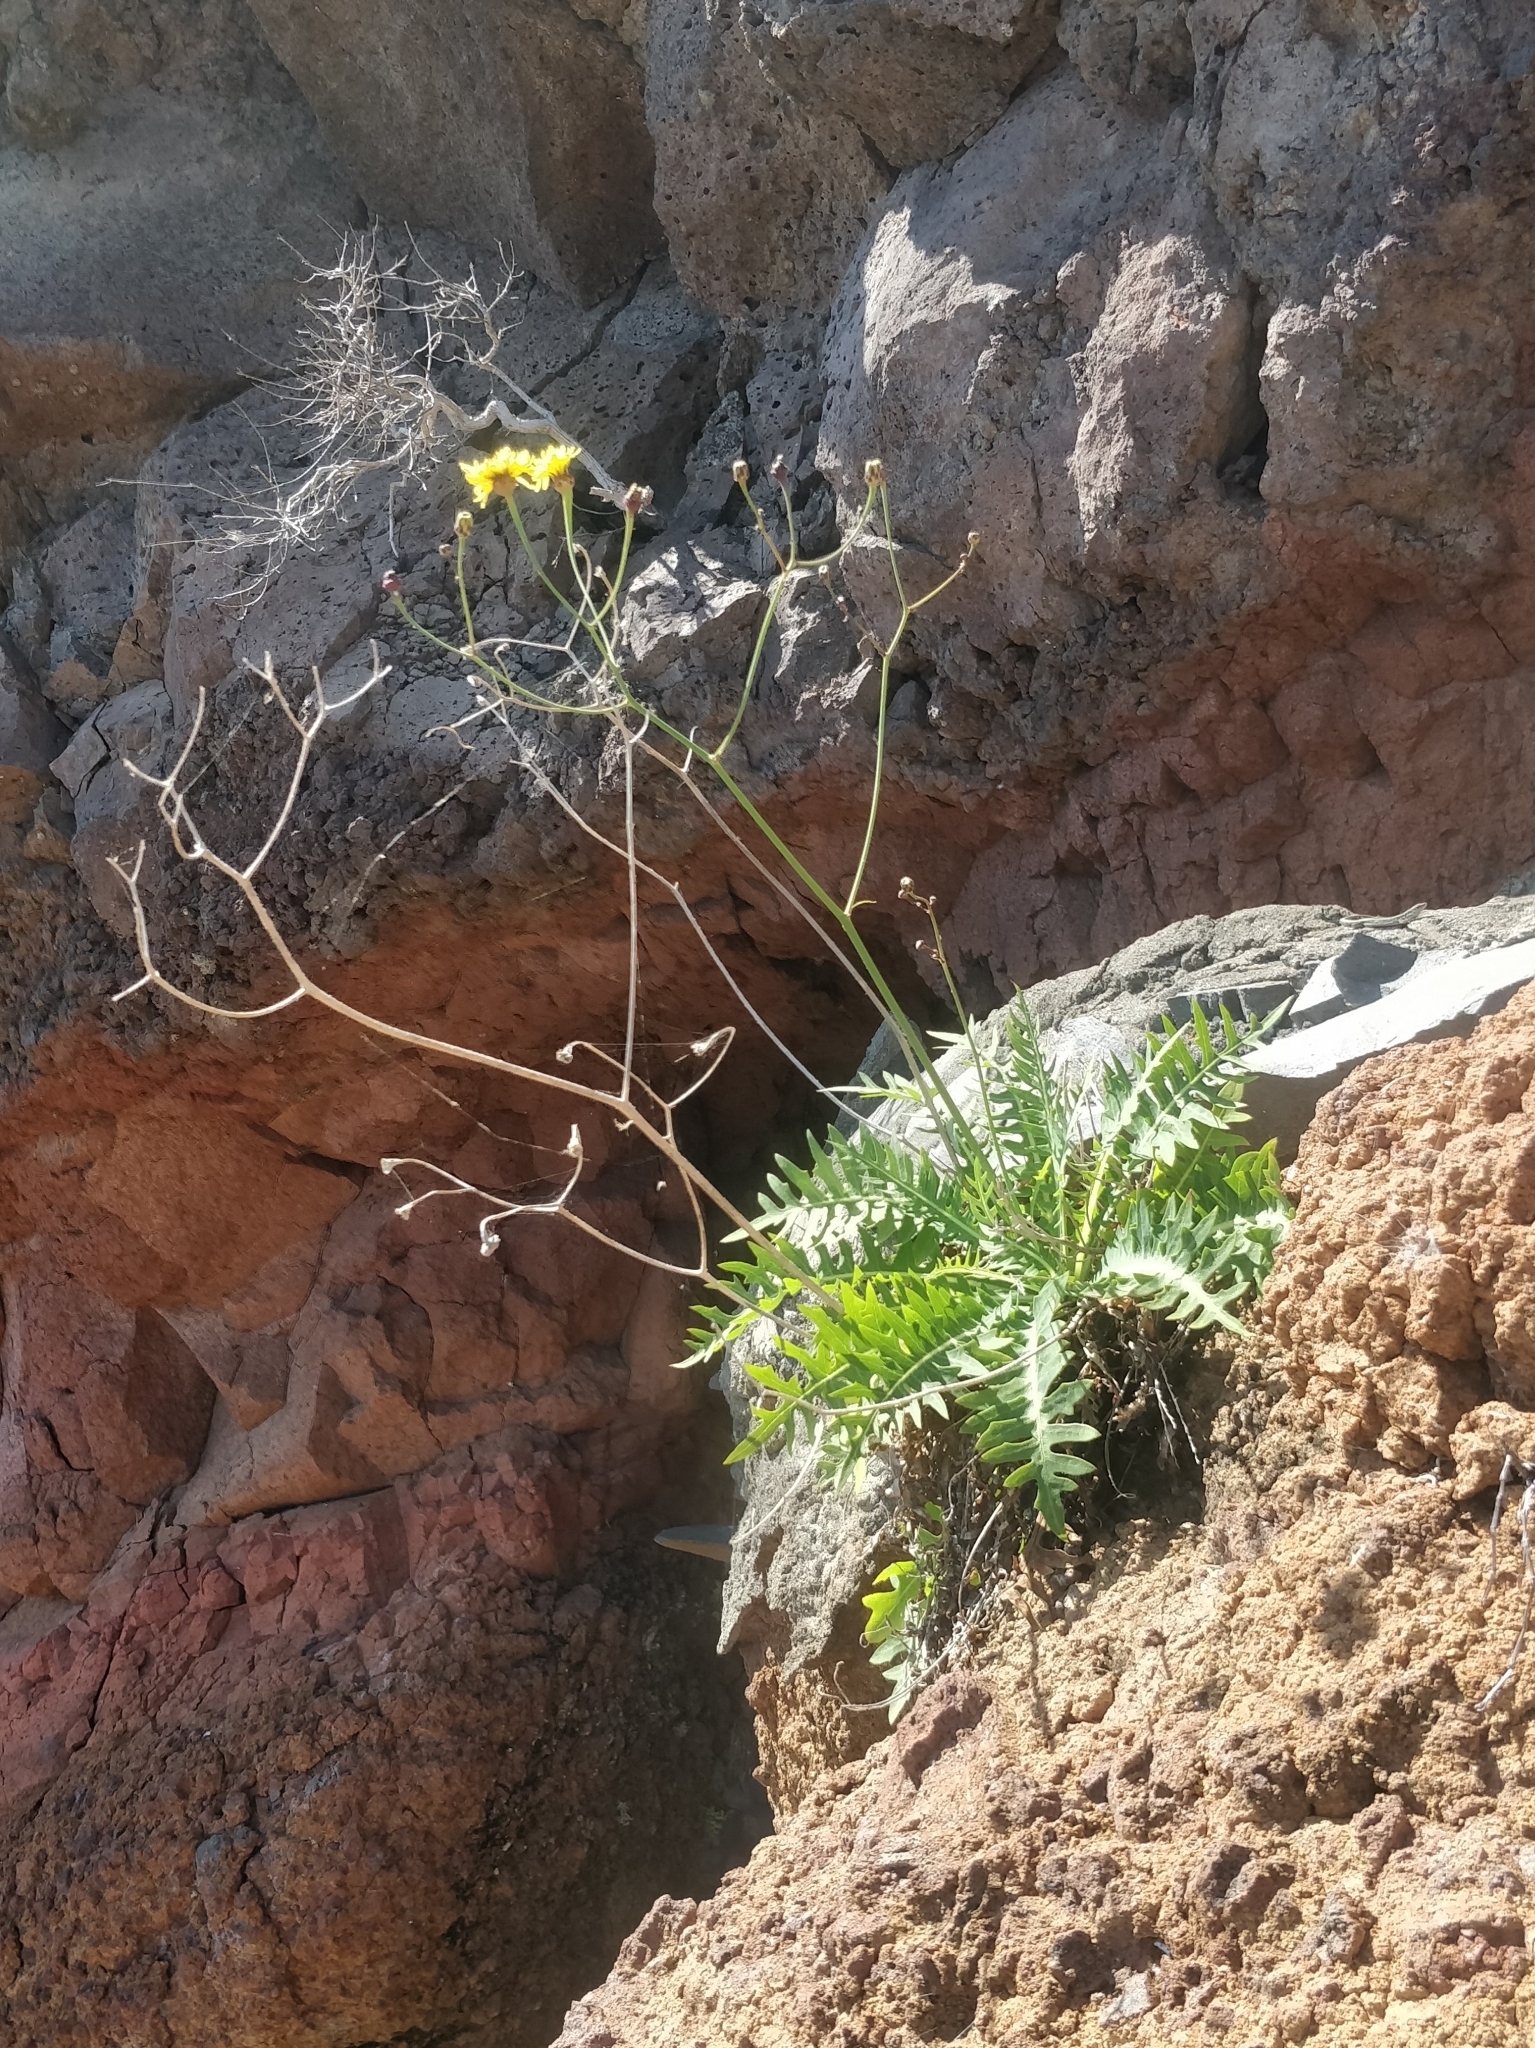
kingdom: Plantae
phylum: Tracheophyta
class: Magnoliopsida
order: Asterales
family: Asteraceae
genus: Sonchus
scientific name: Sonchus ustulatus
